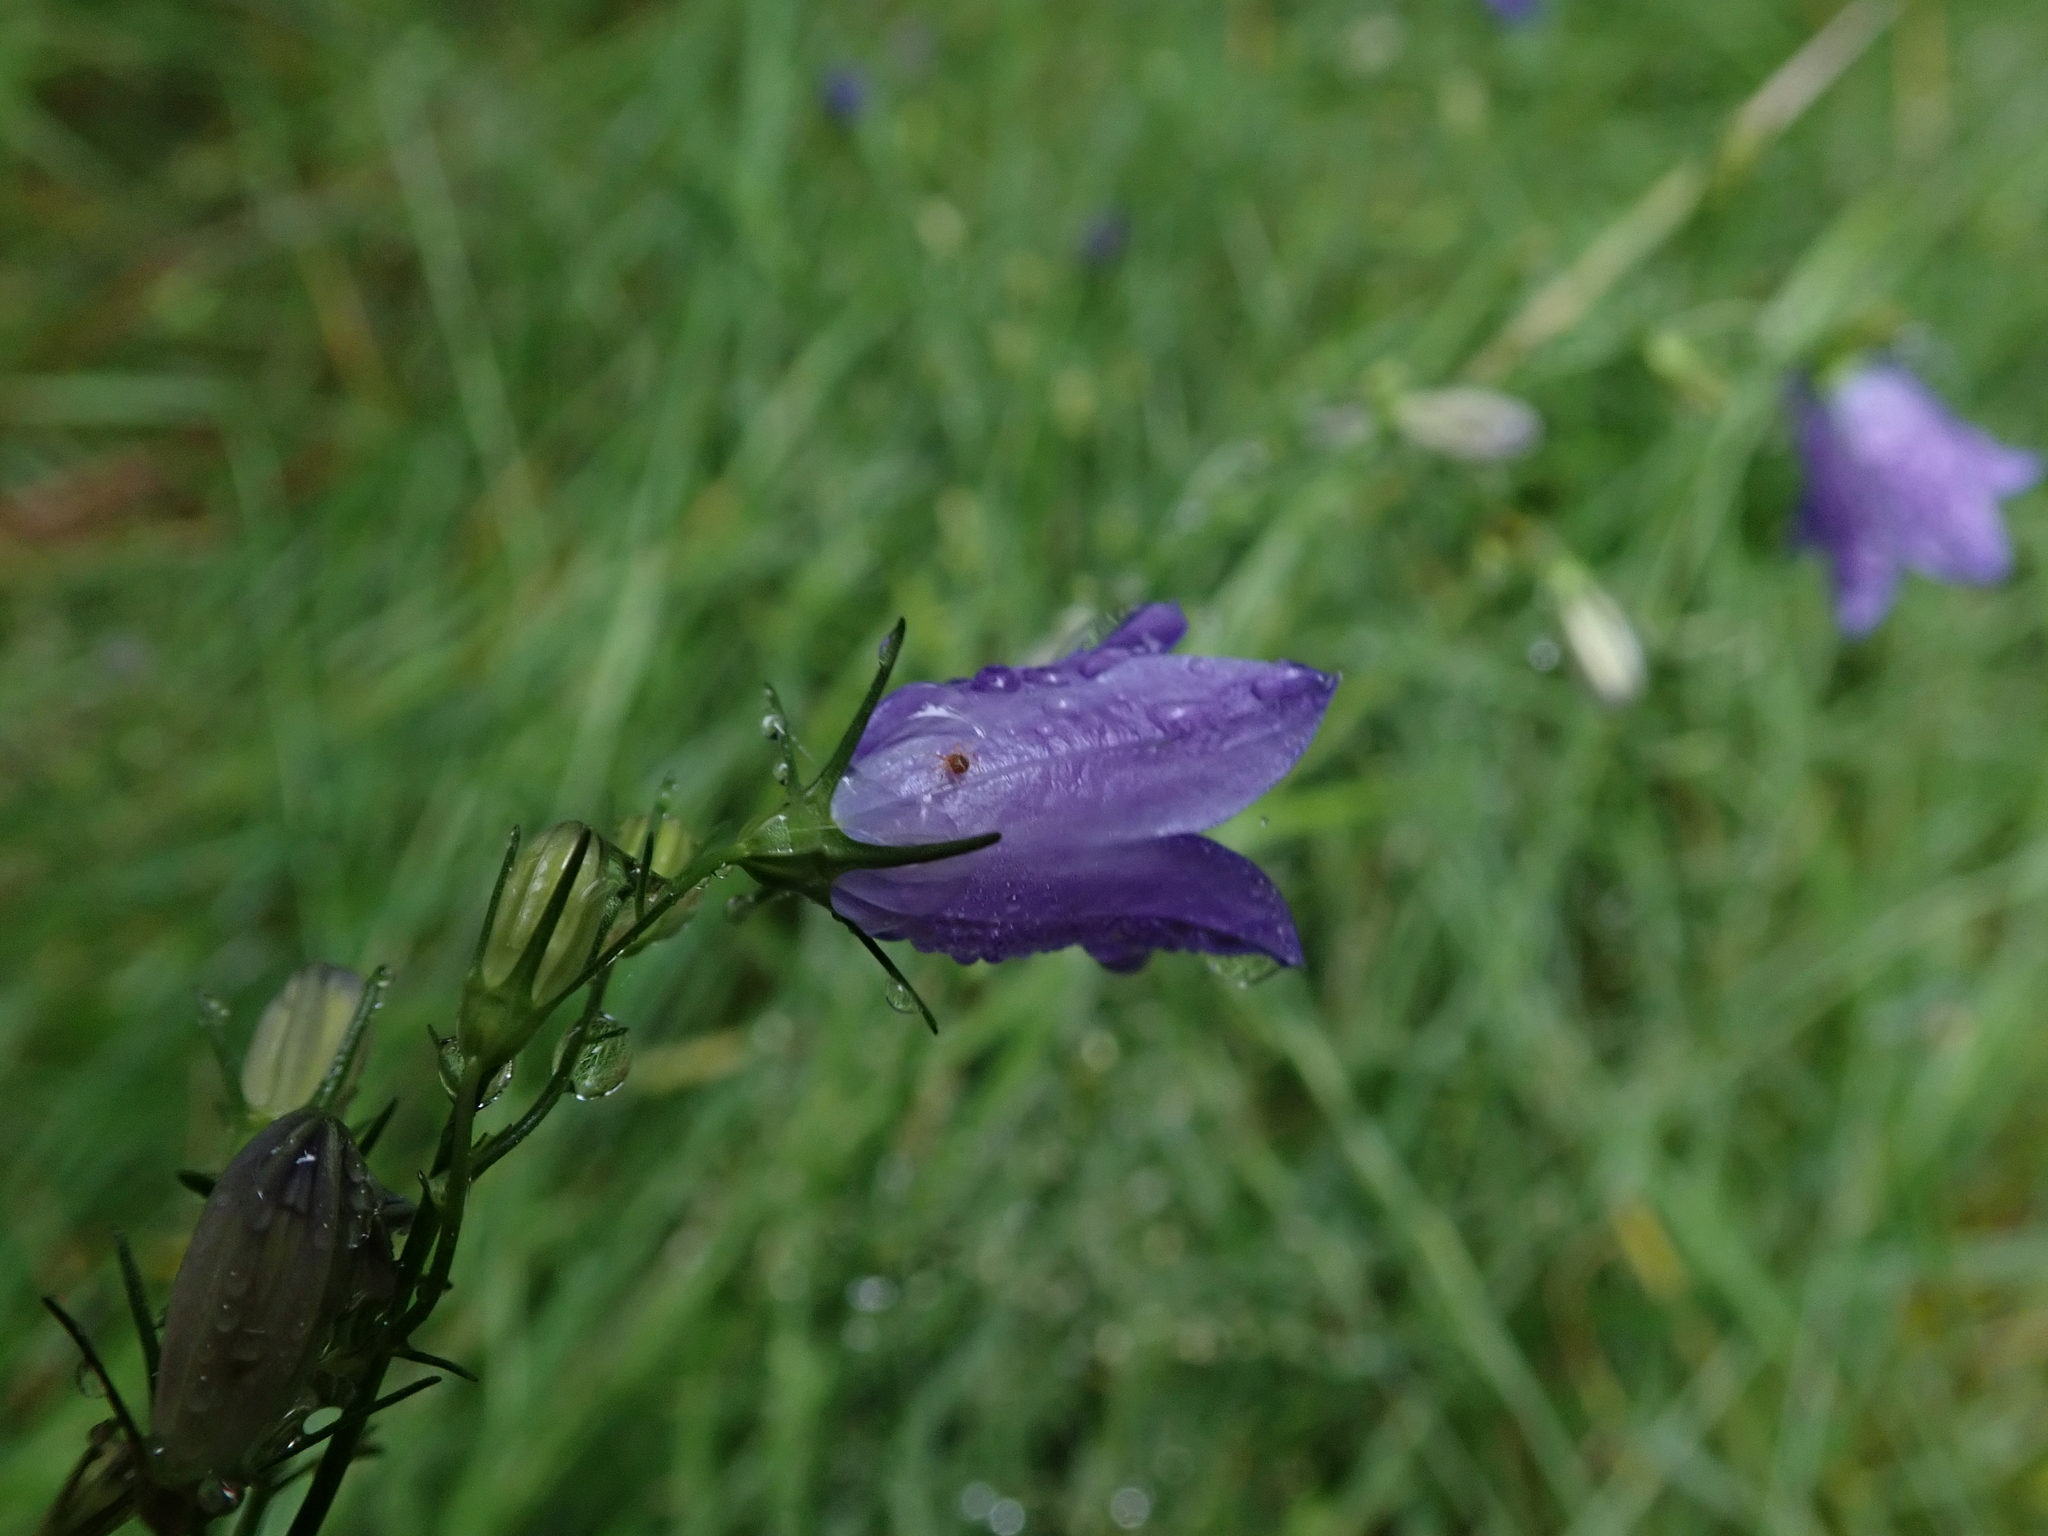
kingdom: Plantae
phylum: Tracheophyta
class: Magnoliopsida
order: Asterales
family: Campanulaceae
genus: Campanula
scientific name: Campanula rotundifolia
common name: Harebell
